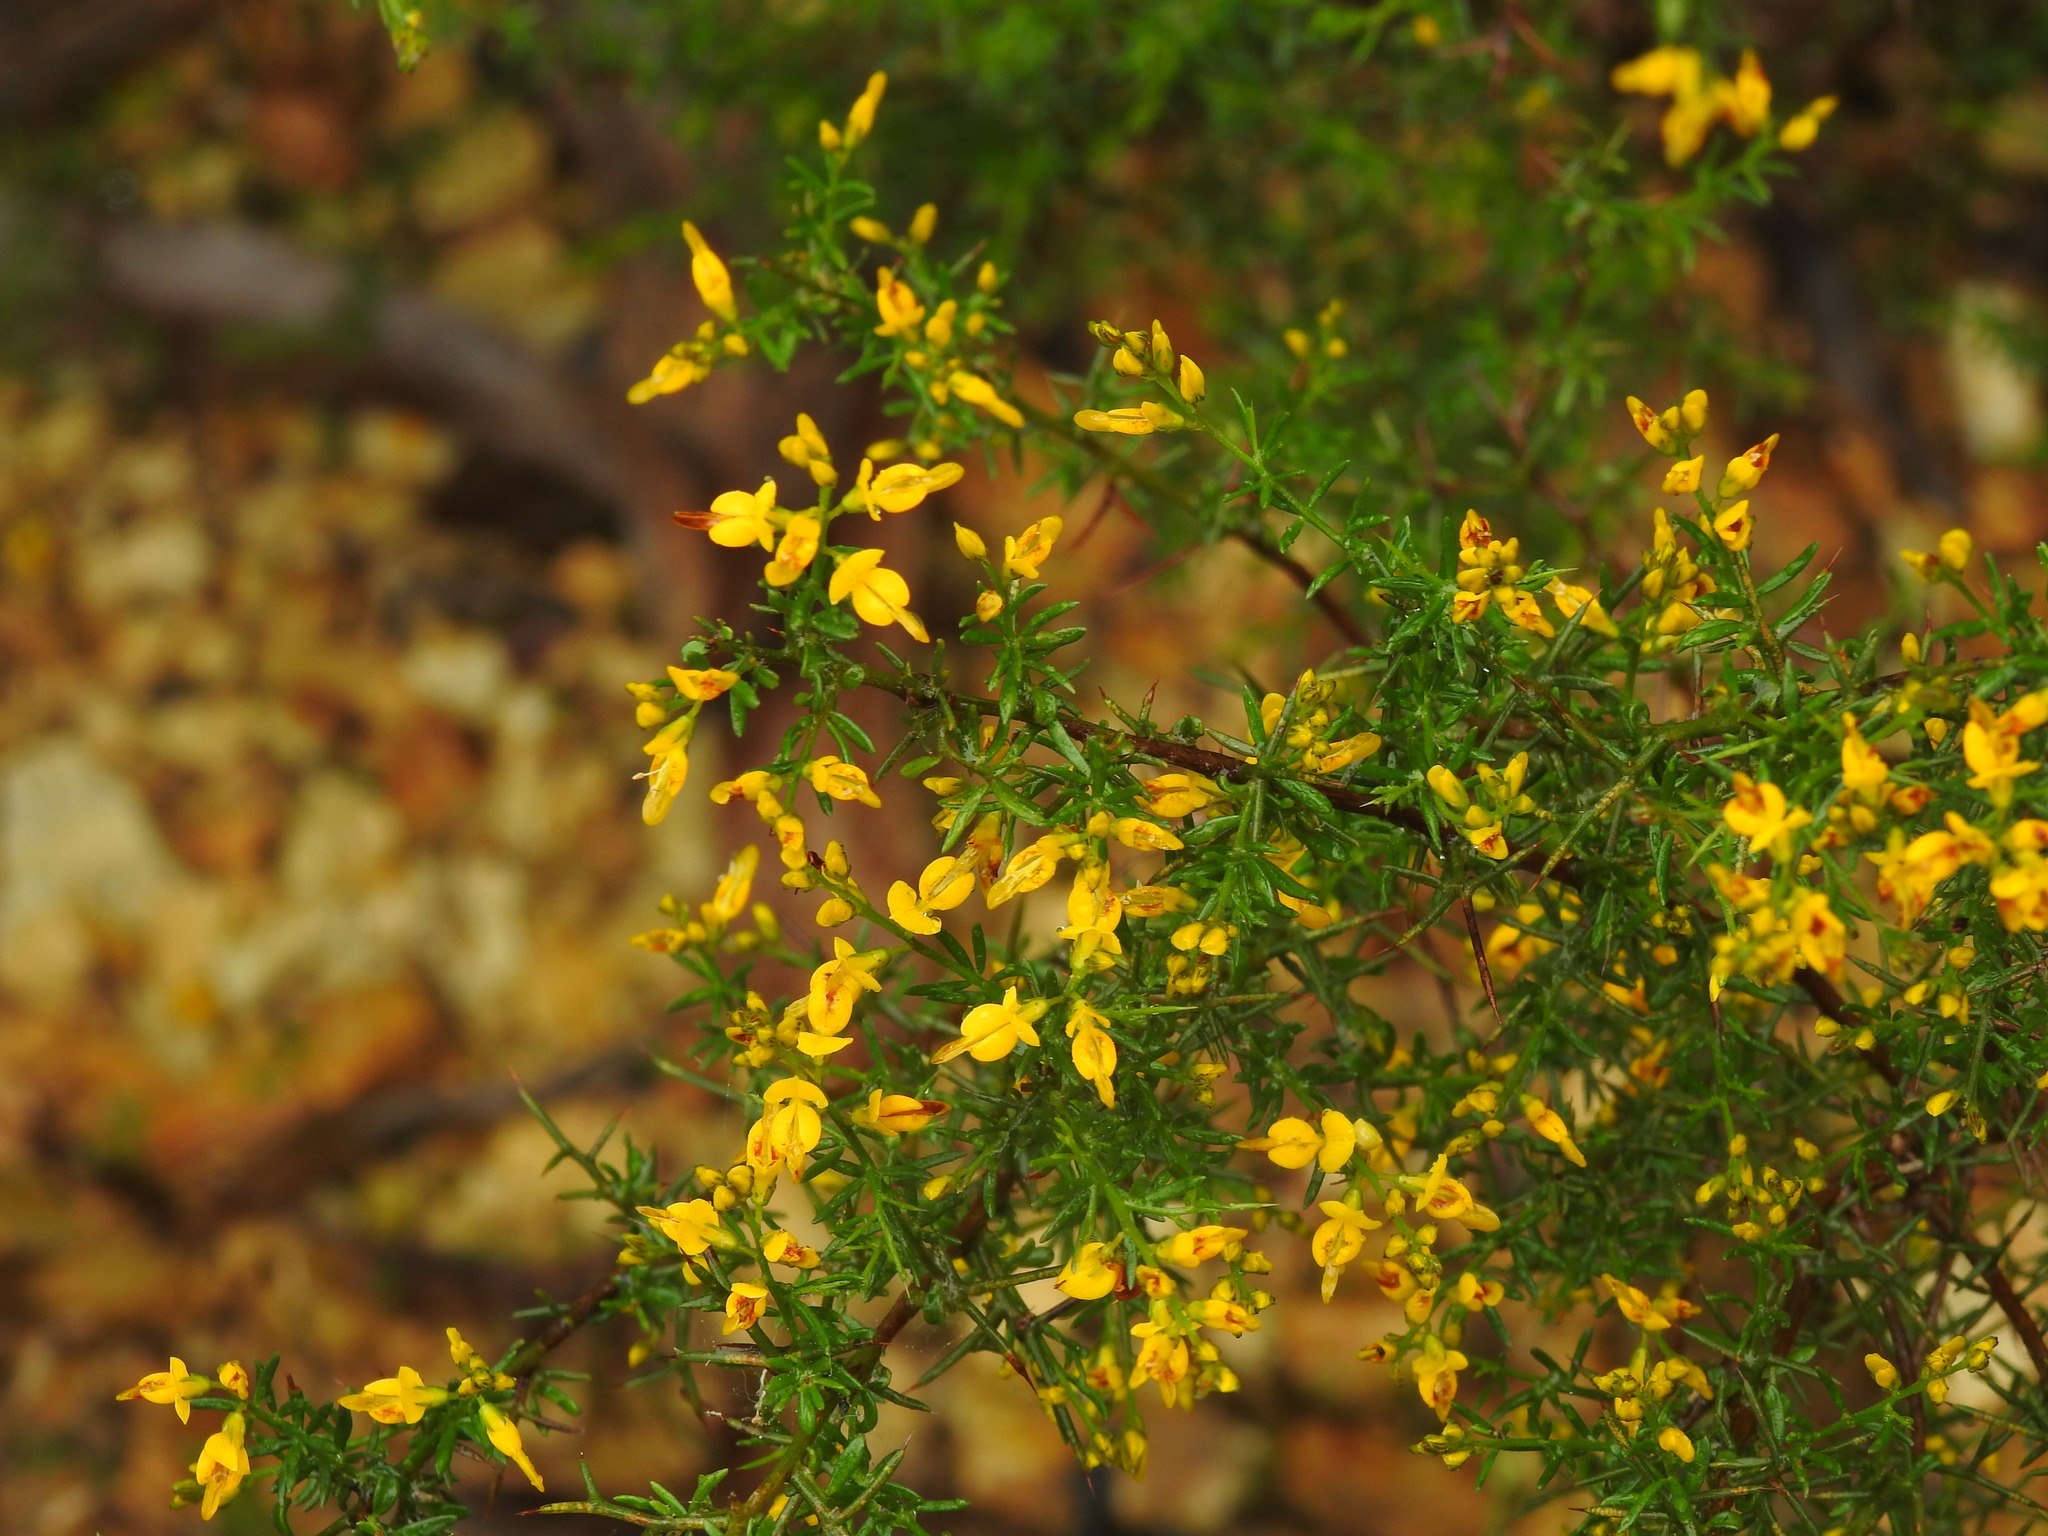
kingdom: Plantae
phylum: Tracheophyta
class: Magnoliopsida
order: Fabales
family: Fabaceae
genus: Genista
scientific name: Genista triacanthos
